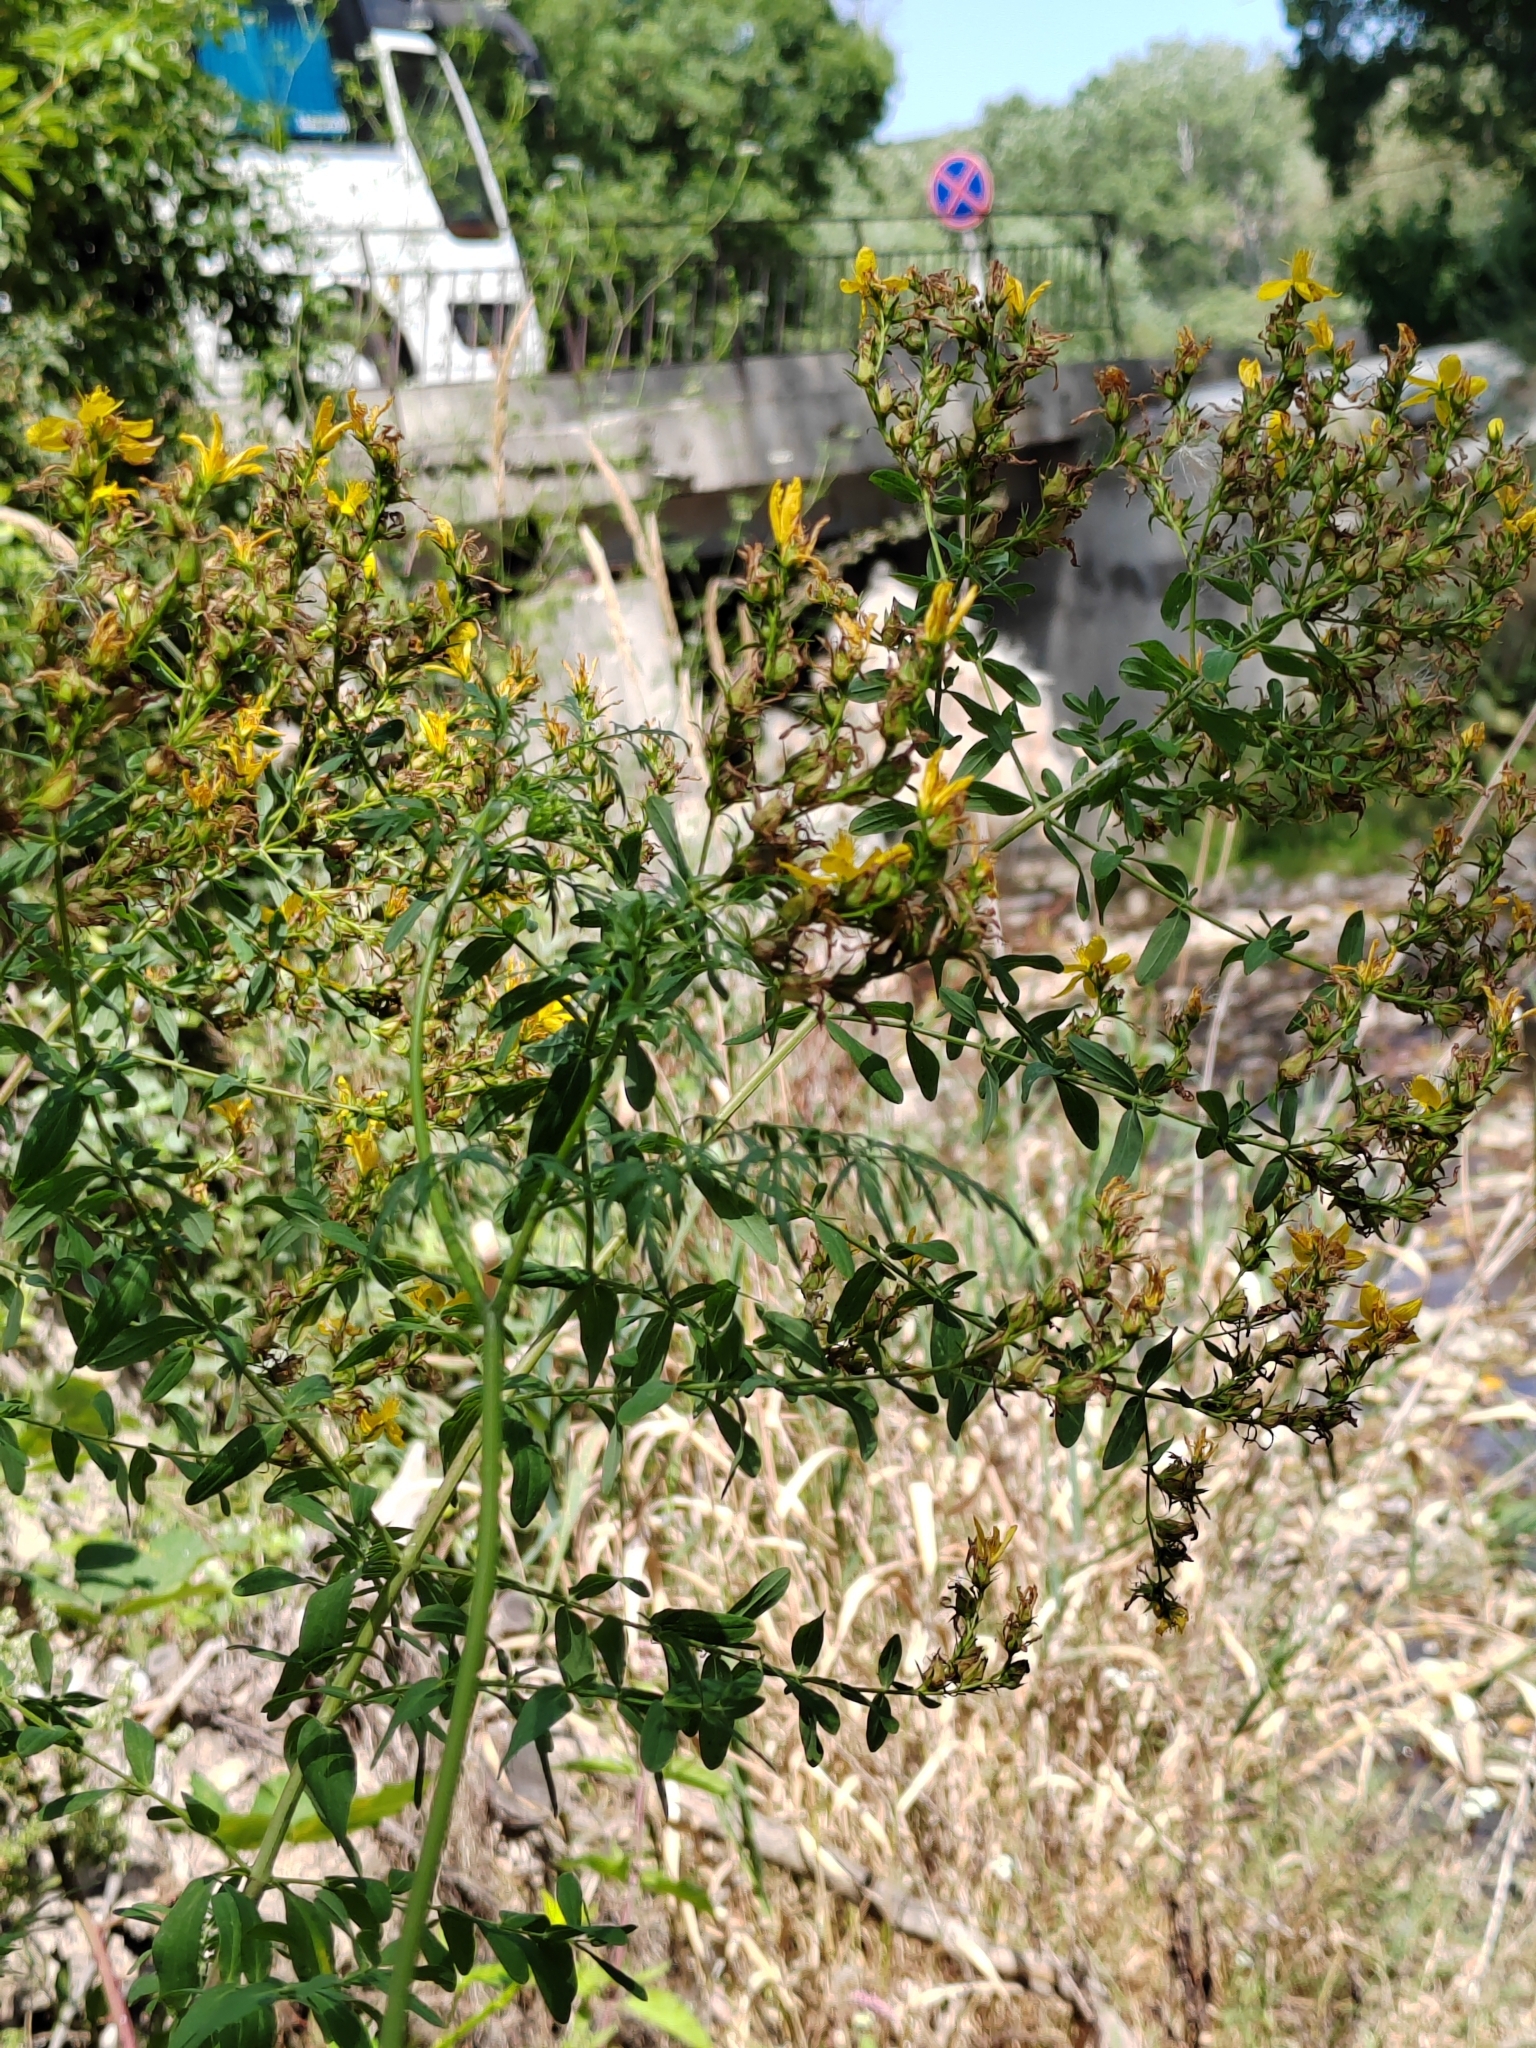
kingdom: Plantae
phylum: Tracheophyta
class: Magnoliopsida
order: Malpighiales
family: Hypericaceae
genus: Hypericum
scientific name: Hypericum perforatum
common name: Common st. johnswort
